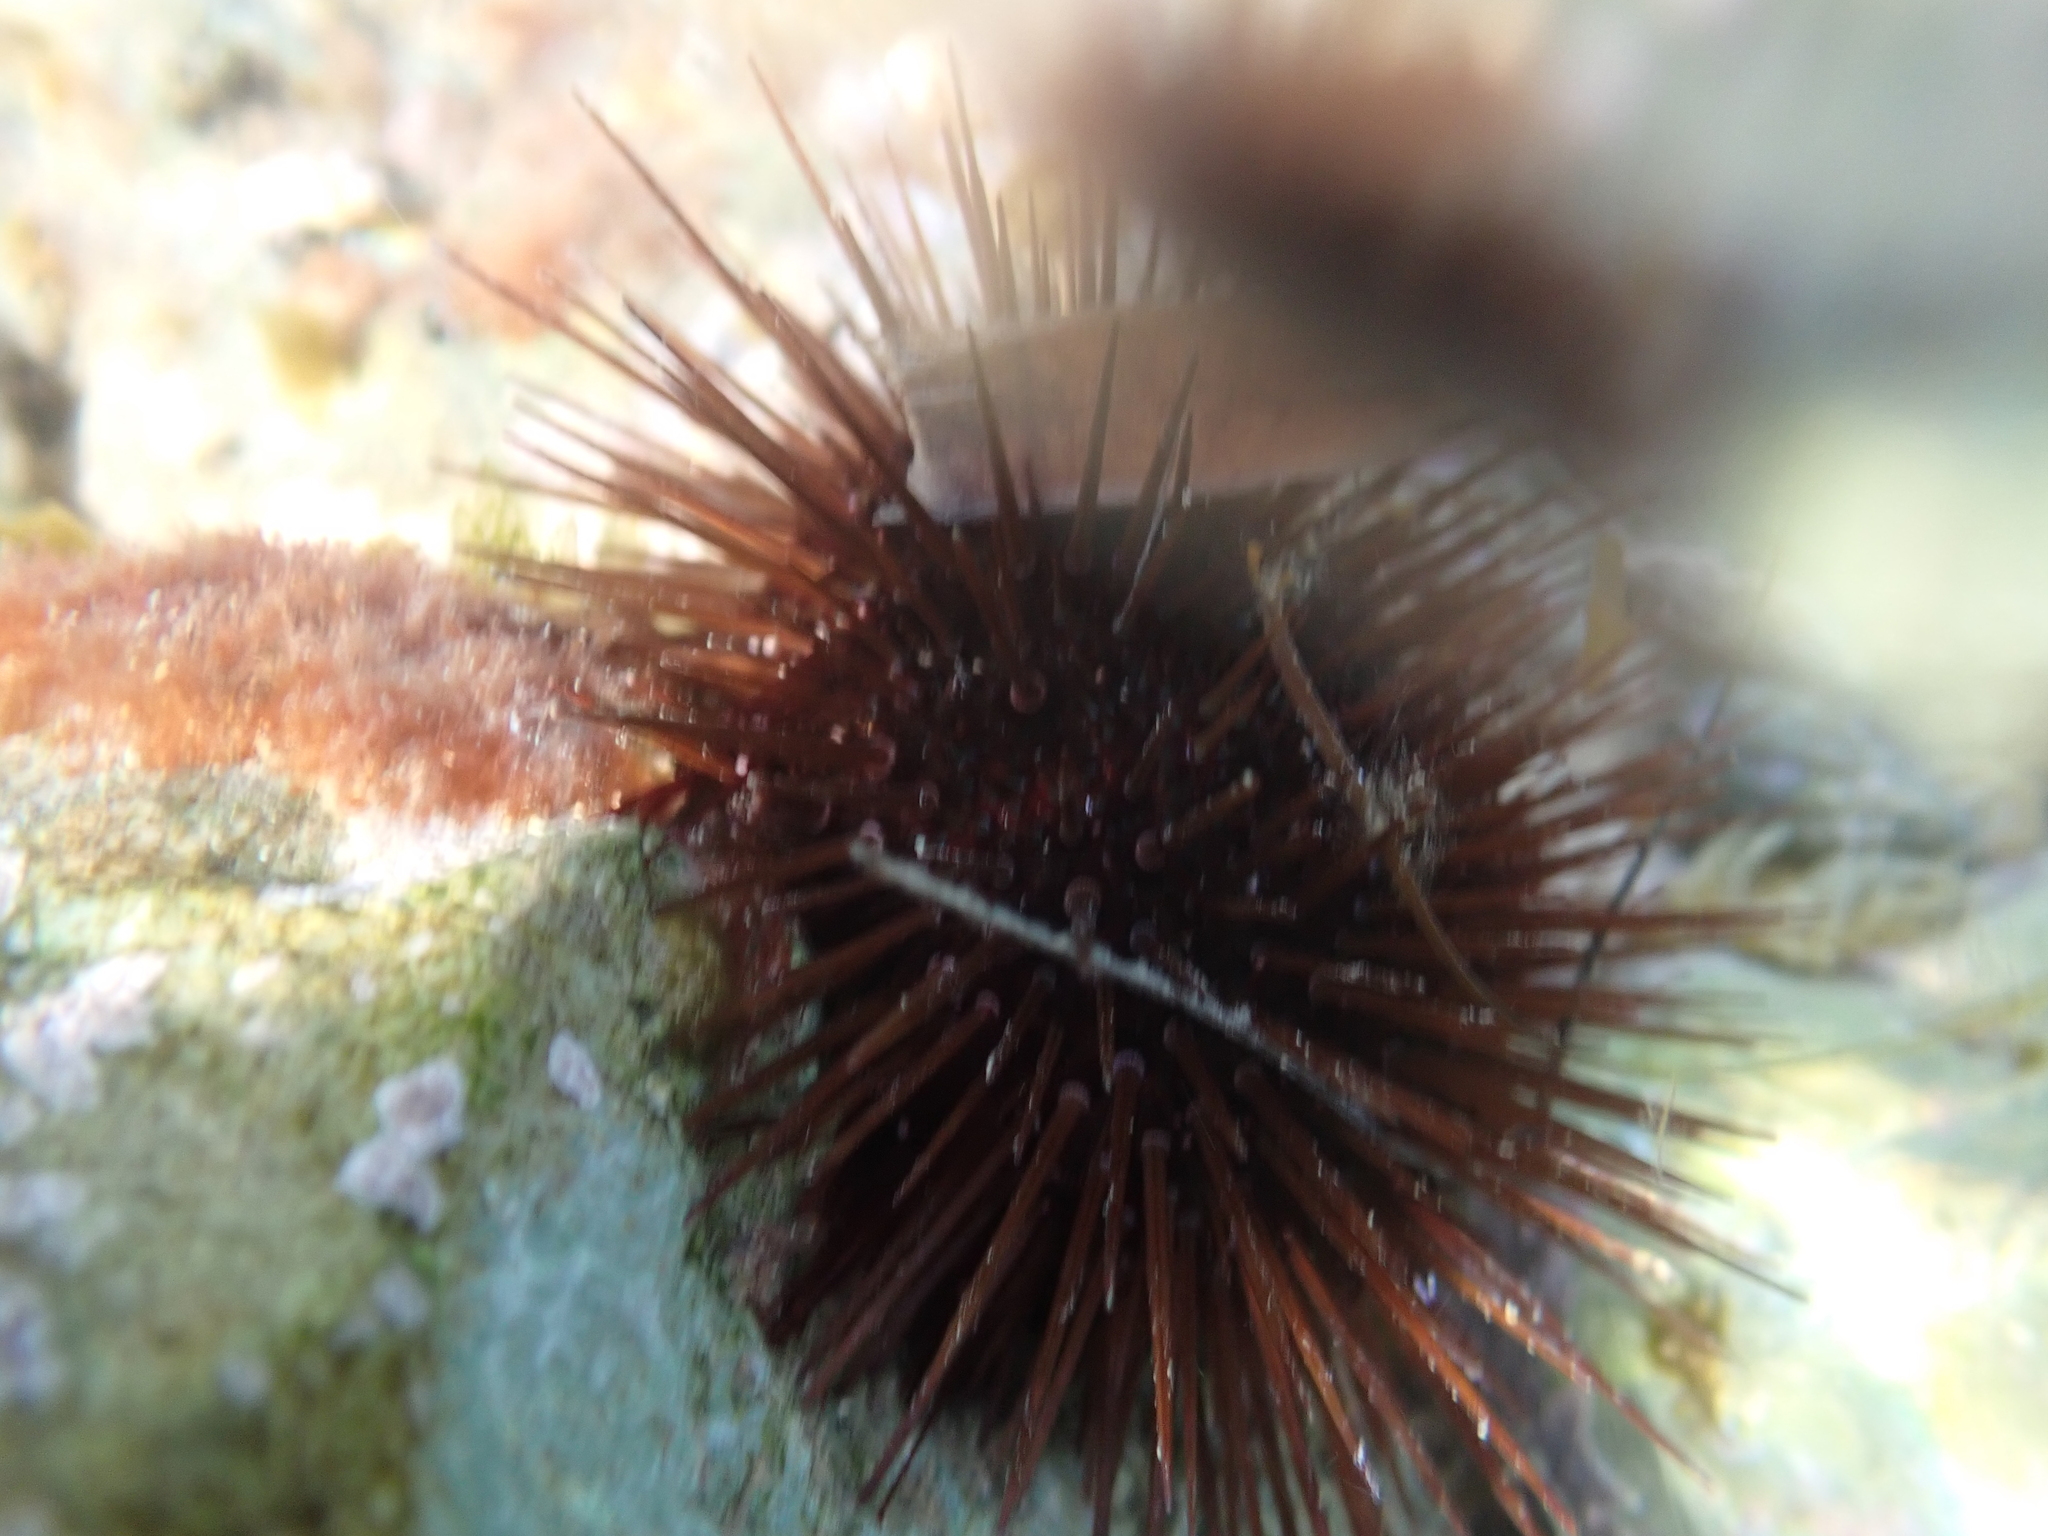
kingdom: Animalia
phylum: Echinodermata
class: Echinoidea
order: Camarodonta
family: Parechinidae
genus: Paracentrotus
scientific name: Paracentrotus lividus
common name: Purple sea urchin
